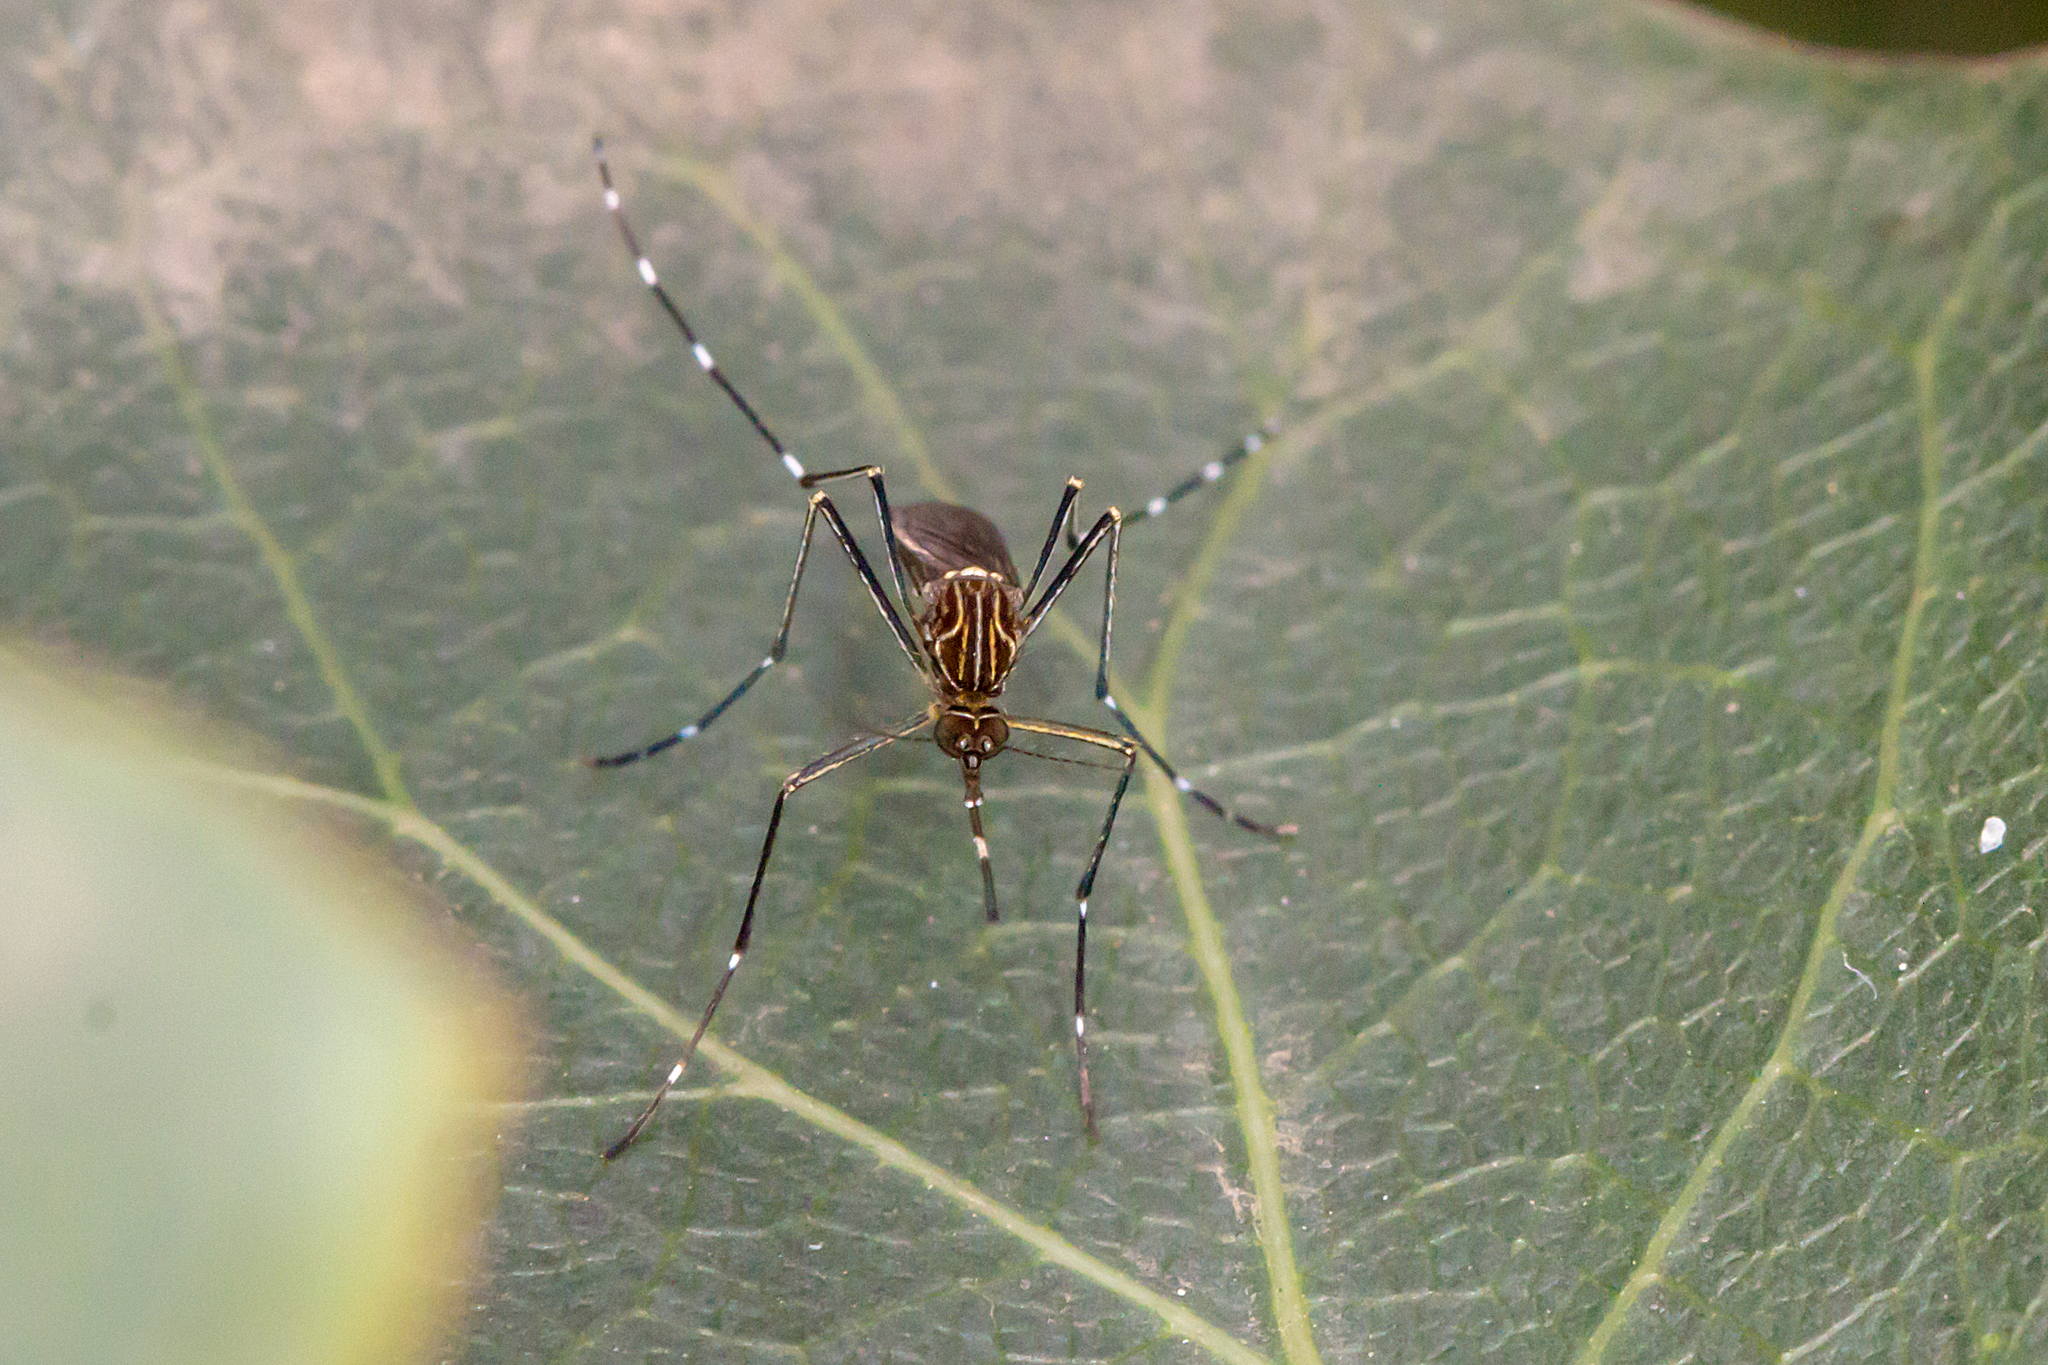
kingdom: Animalia
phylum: Arthropoda
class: Insecta
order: Diptera
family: Culicidae
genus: Aedes
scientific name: Aedes notoscriptus
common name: Australian backyard mosquito
